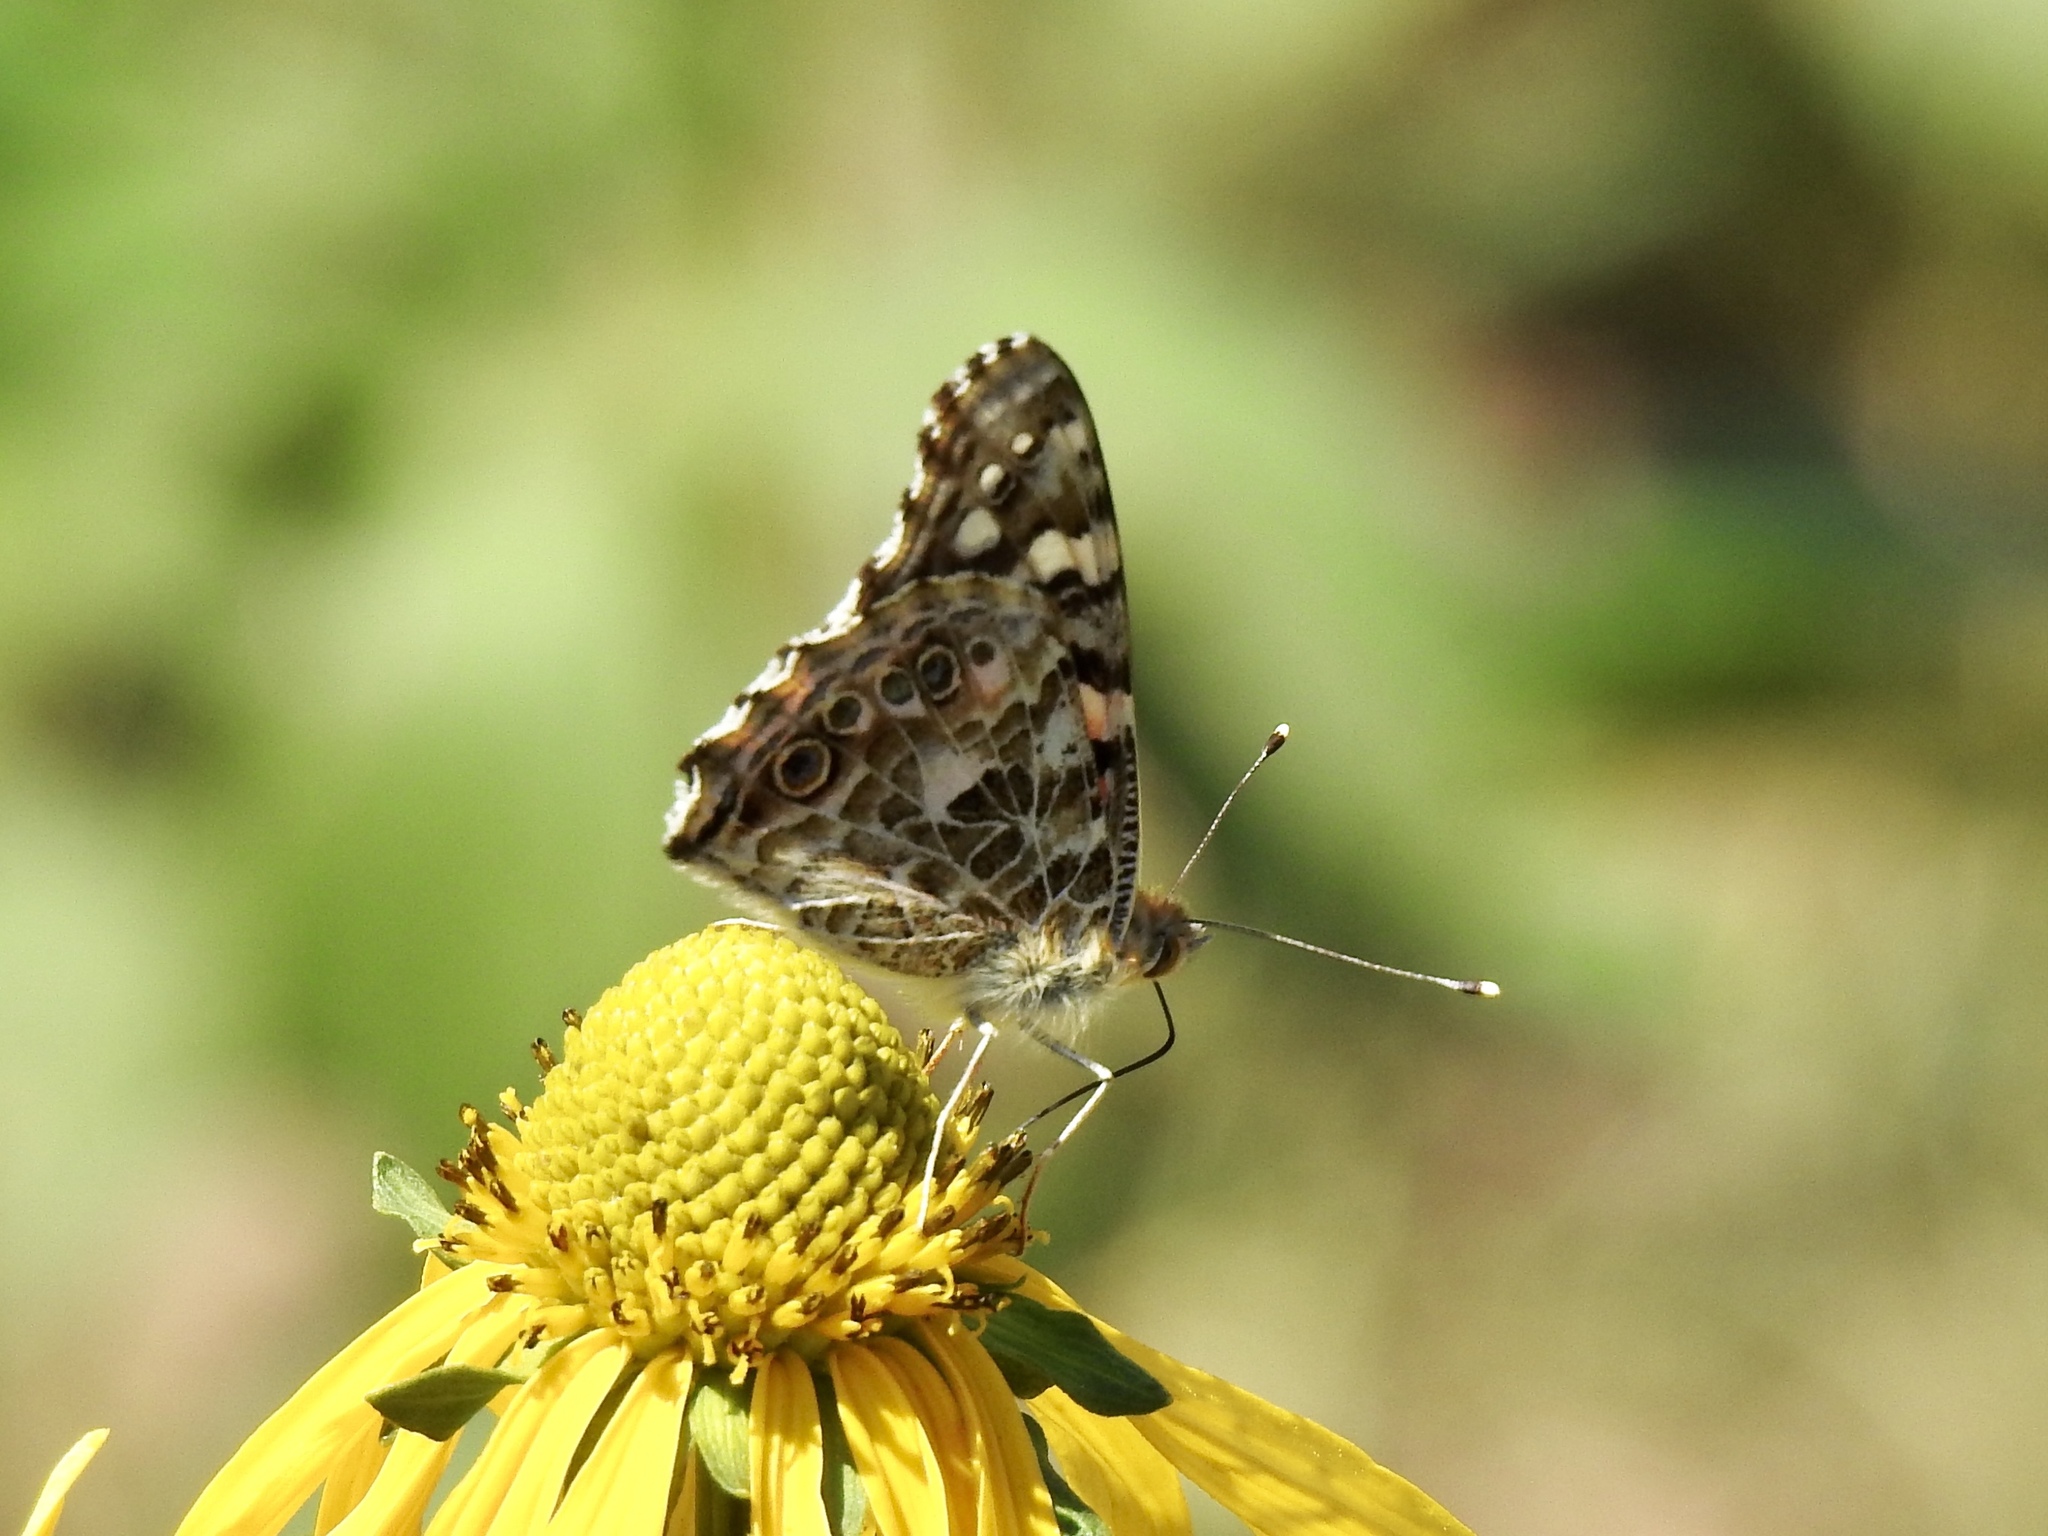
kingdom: Animalia
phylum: Arthropoda
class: Insecta
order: Lepidoptera
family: Nymphalidae
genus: Vanessa
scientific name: Vanessa cardui
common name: Painted lady
